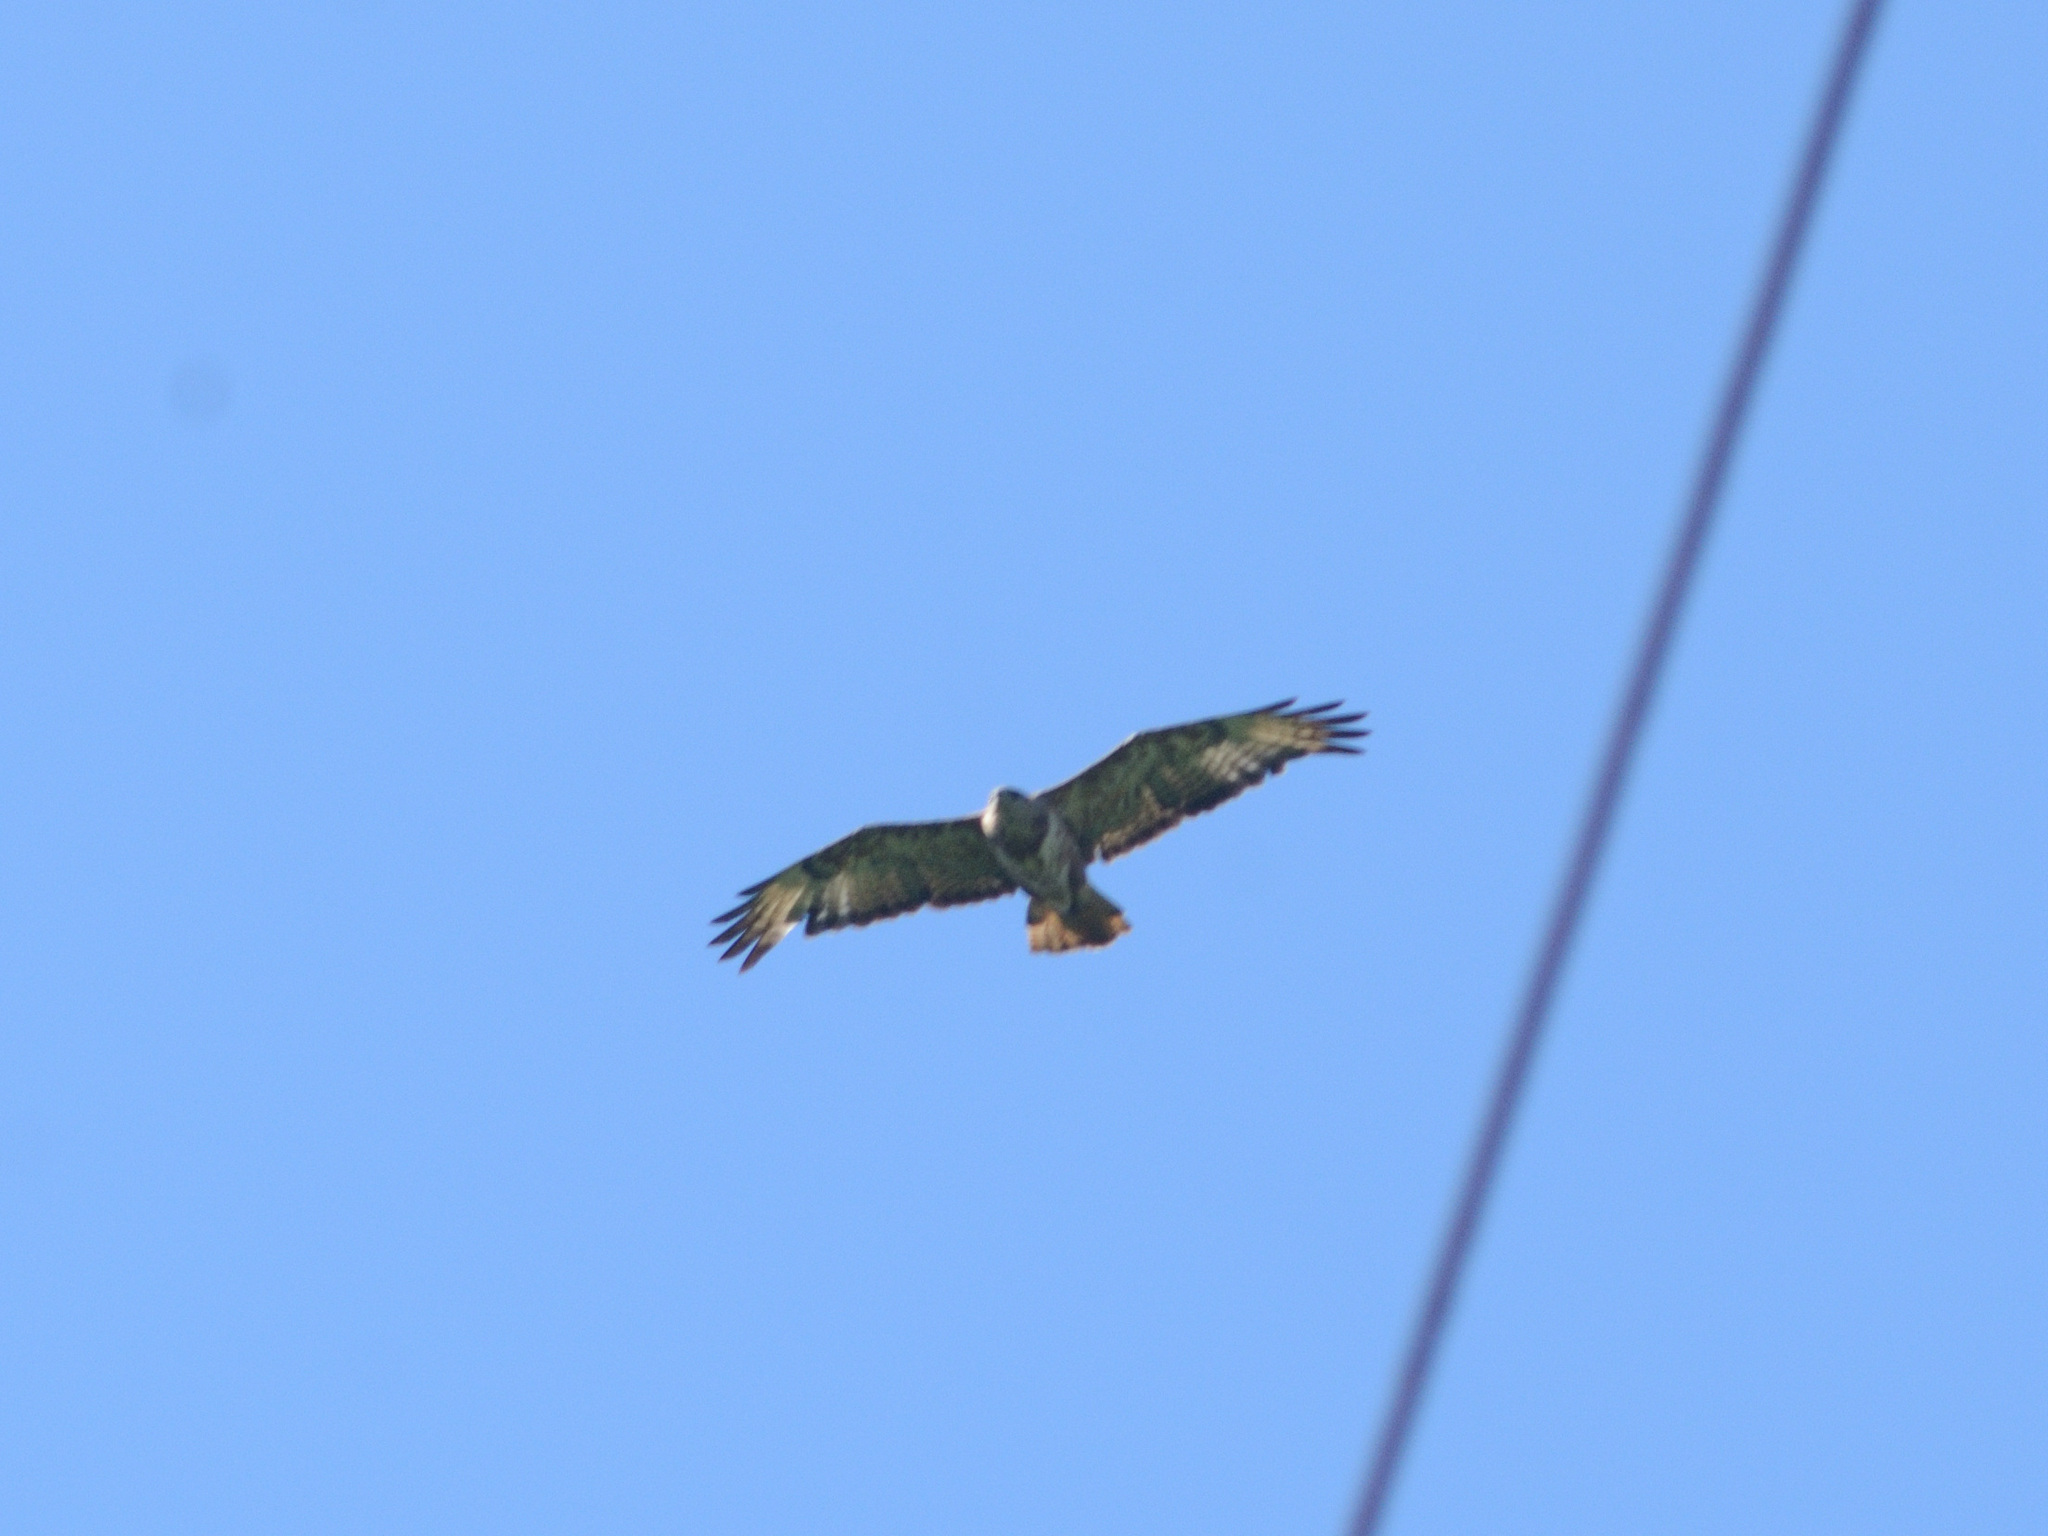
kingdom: Animalia
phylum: Chordata
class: Aves
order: Accipitriformes
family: Accipitridae
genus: Buteo
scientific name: Buteo buteo
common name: Common buzzard
